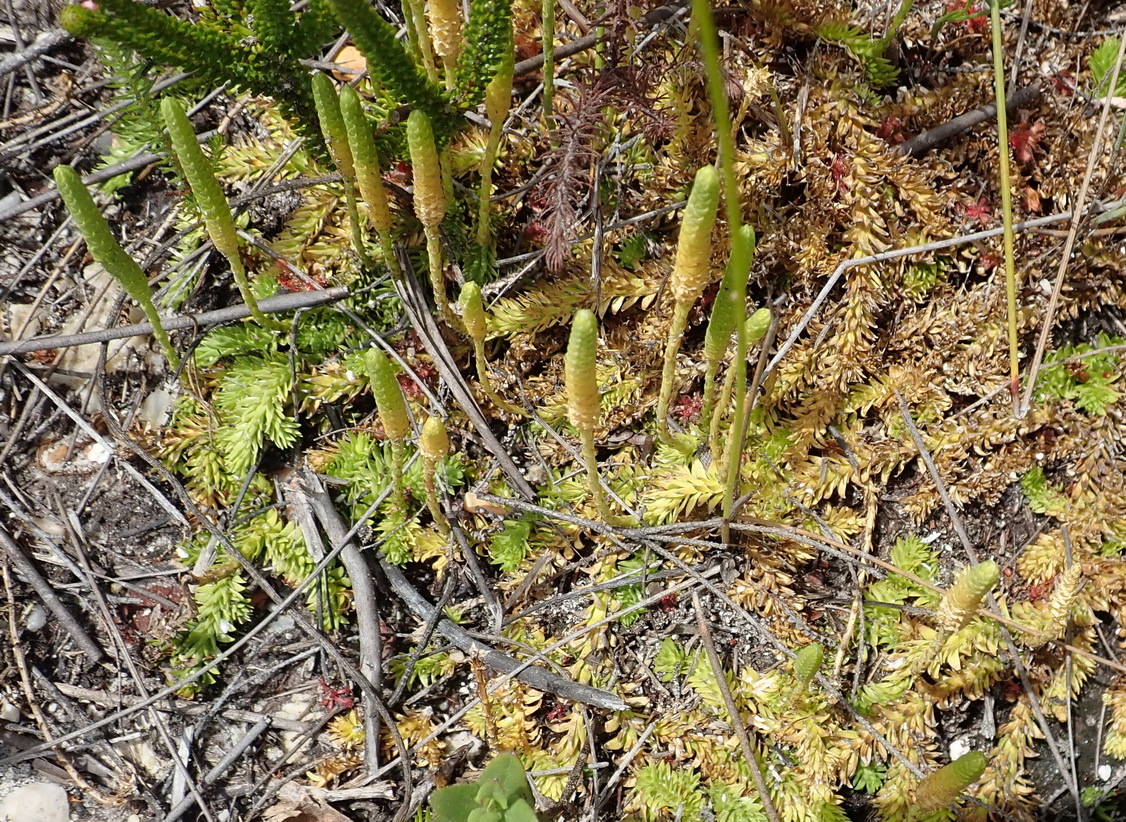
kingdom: Plantae
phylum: Tracheophyta
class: Lycopodiopsida
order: Lycopodiales
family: Lycopodiaceae
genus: Pseudolycopodiella
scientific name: Pseudolycopodiella caroliniana
